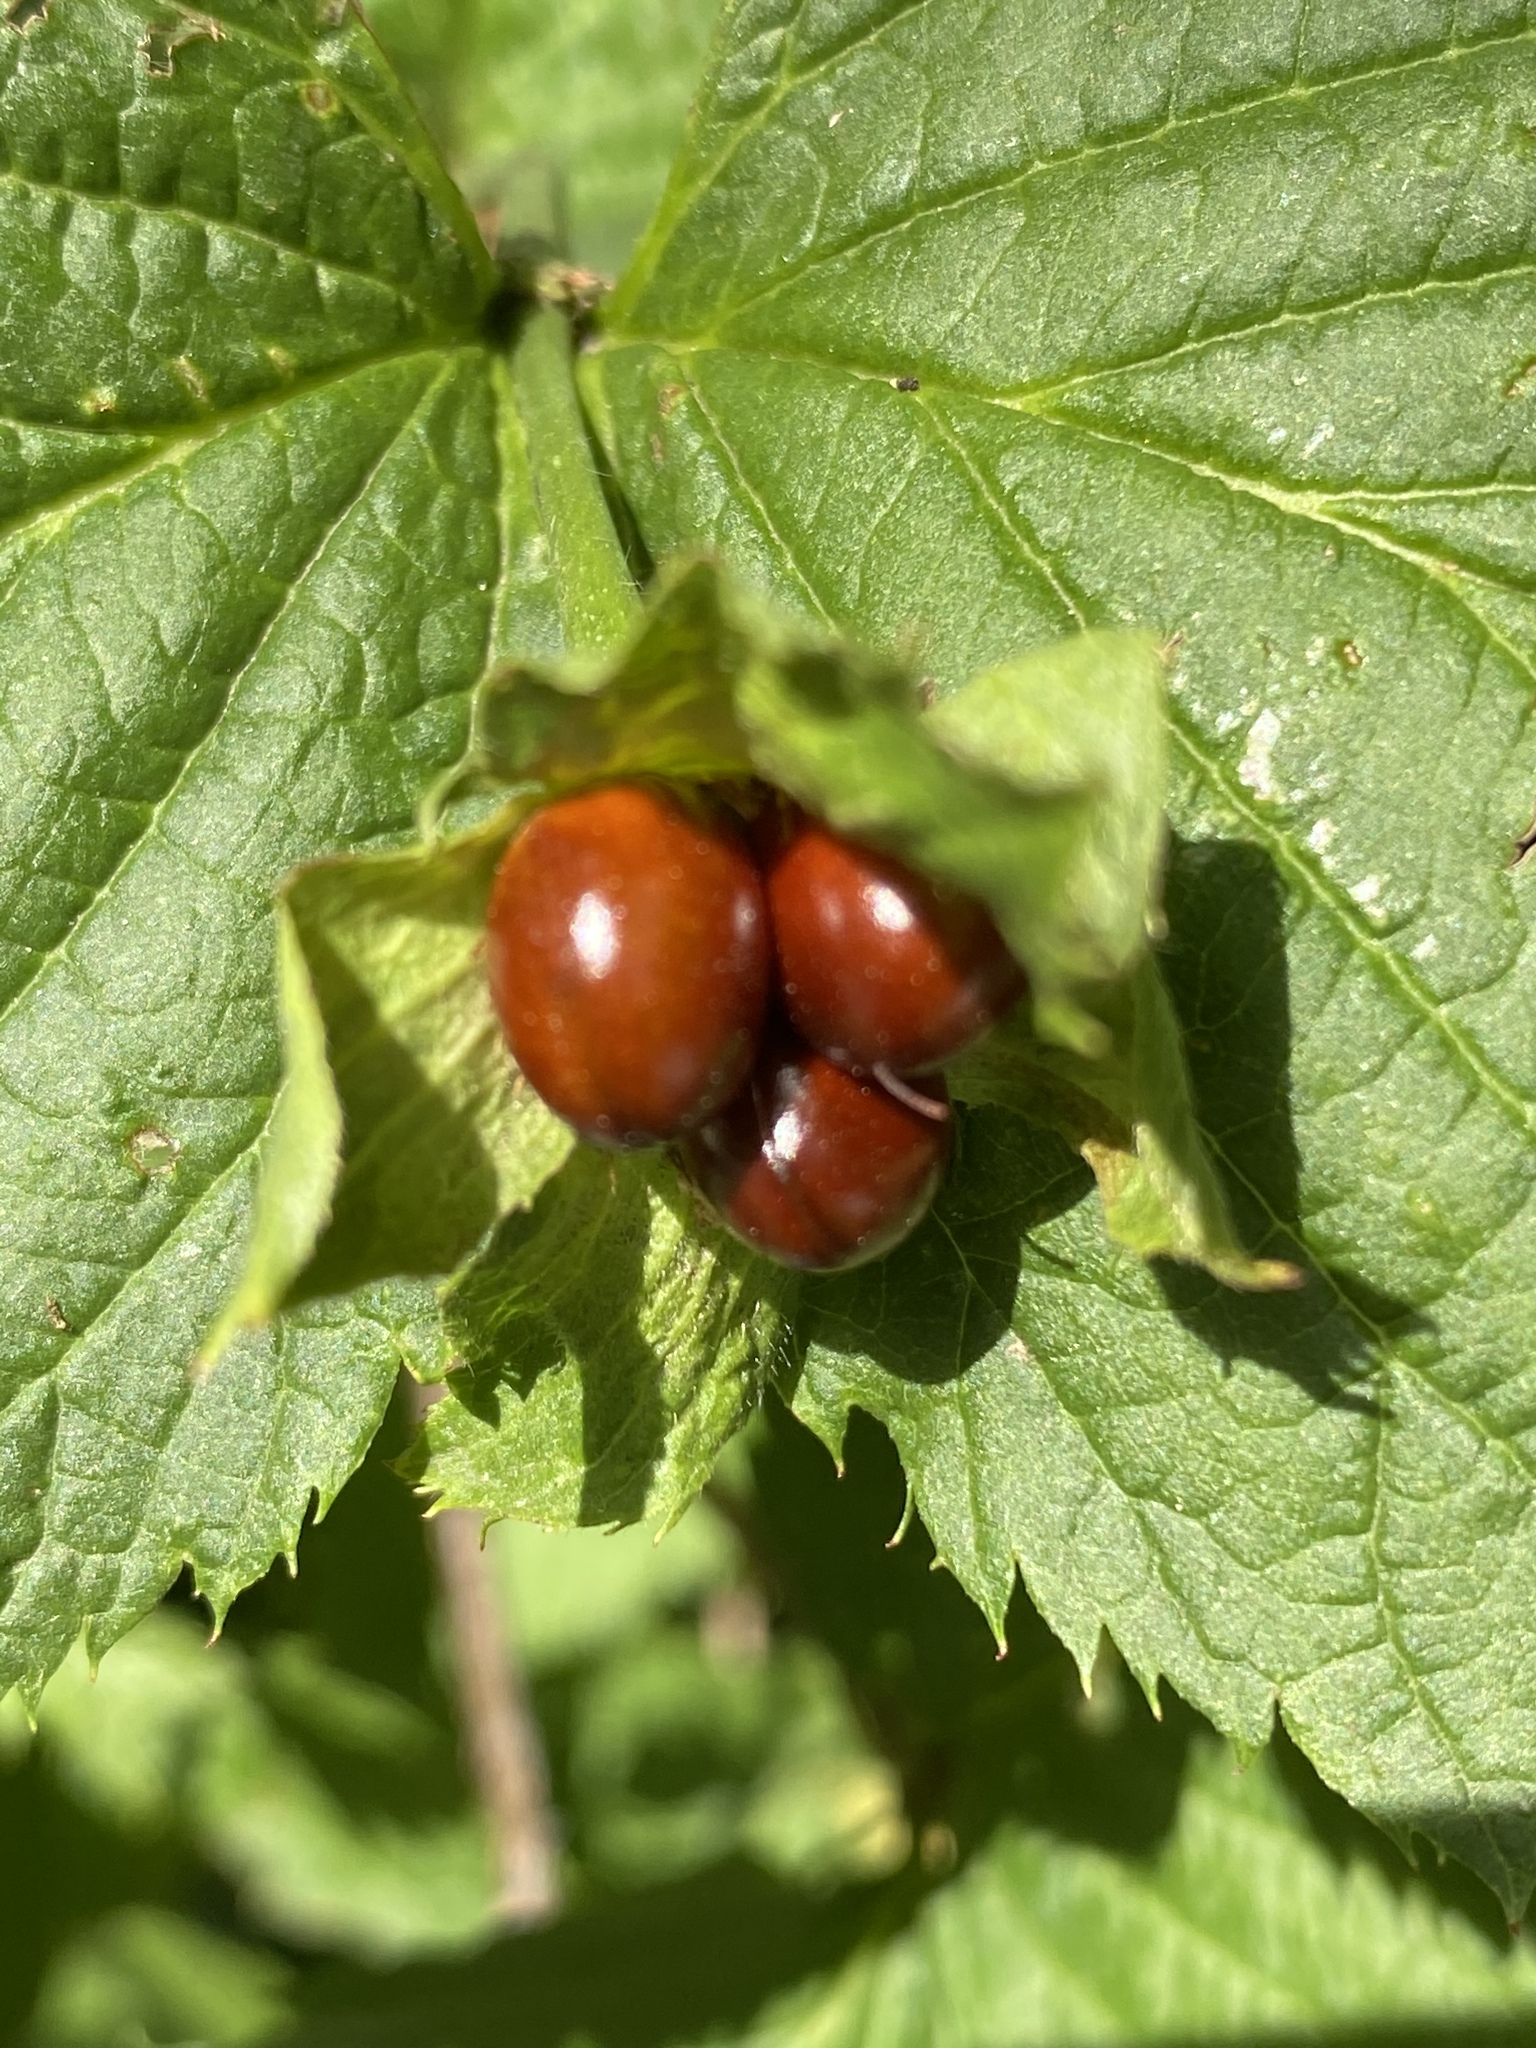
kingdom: Plantae
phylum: Tracheophyta
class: Magnoliopsida
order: Rosales
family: Rosaceae
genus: Rhodotypos
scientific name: Rhodotypos scandens
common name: Jetbead
